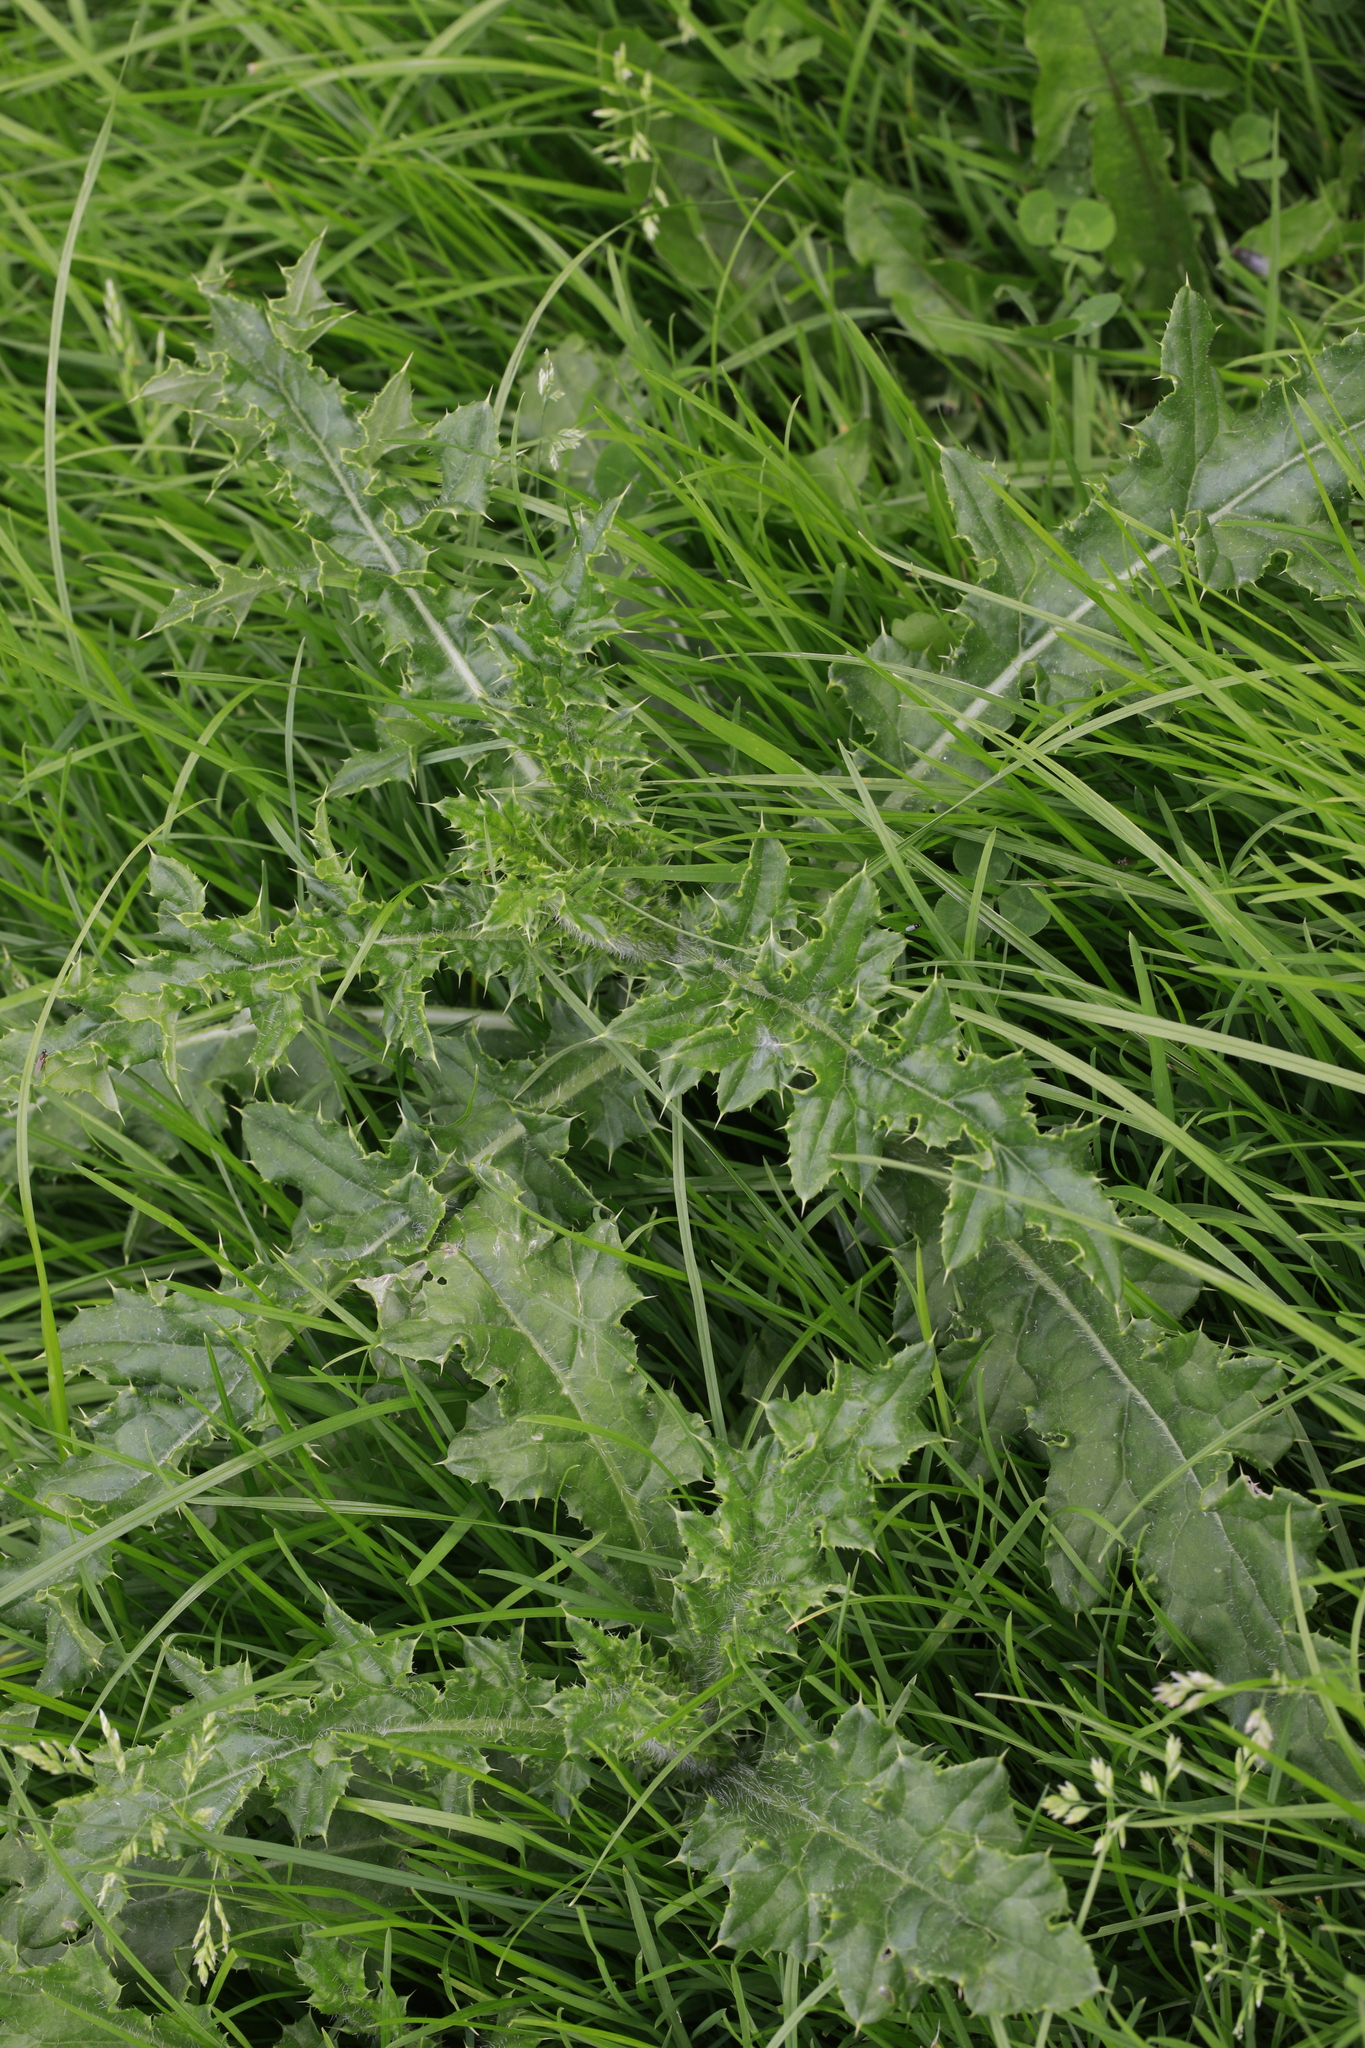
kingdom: Plantae
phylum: Tracheophyta
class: Magnoliopsida
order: Asterales
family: Asteraceae
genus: Cirsium
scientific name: Cirsium arvense
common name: Creeping thistle
